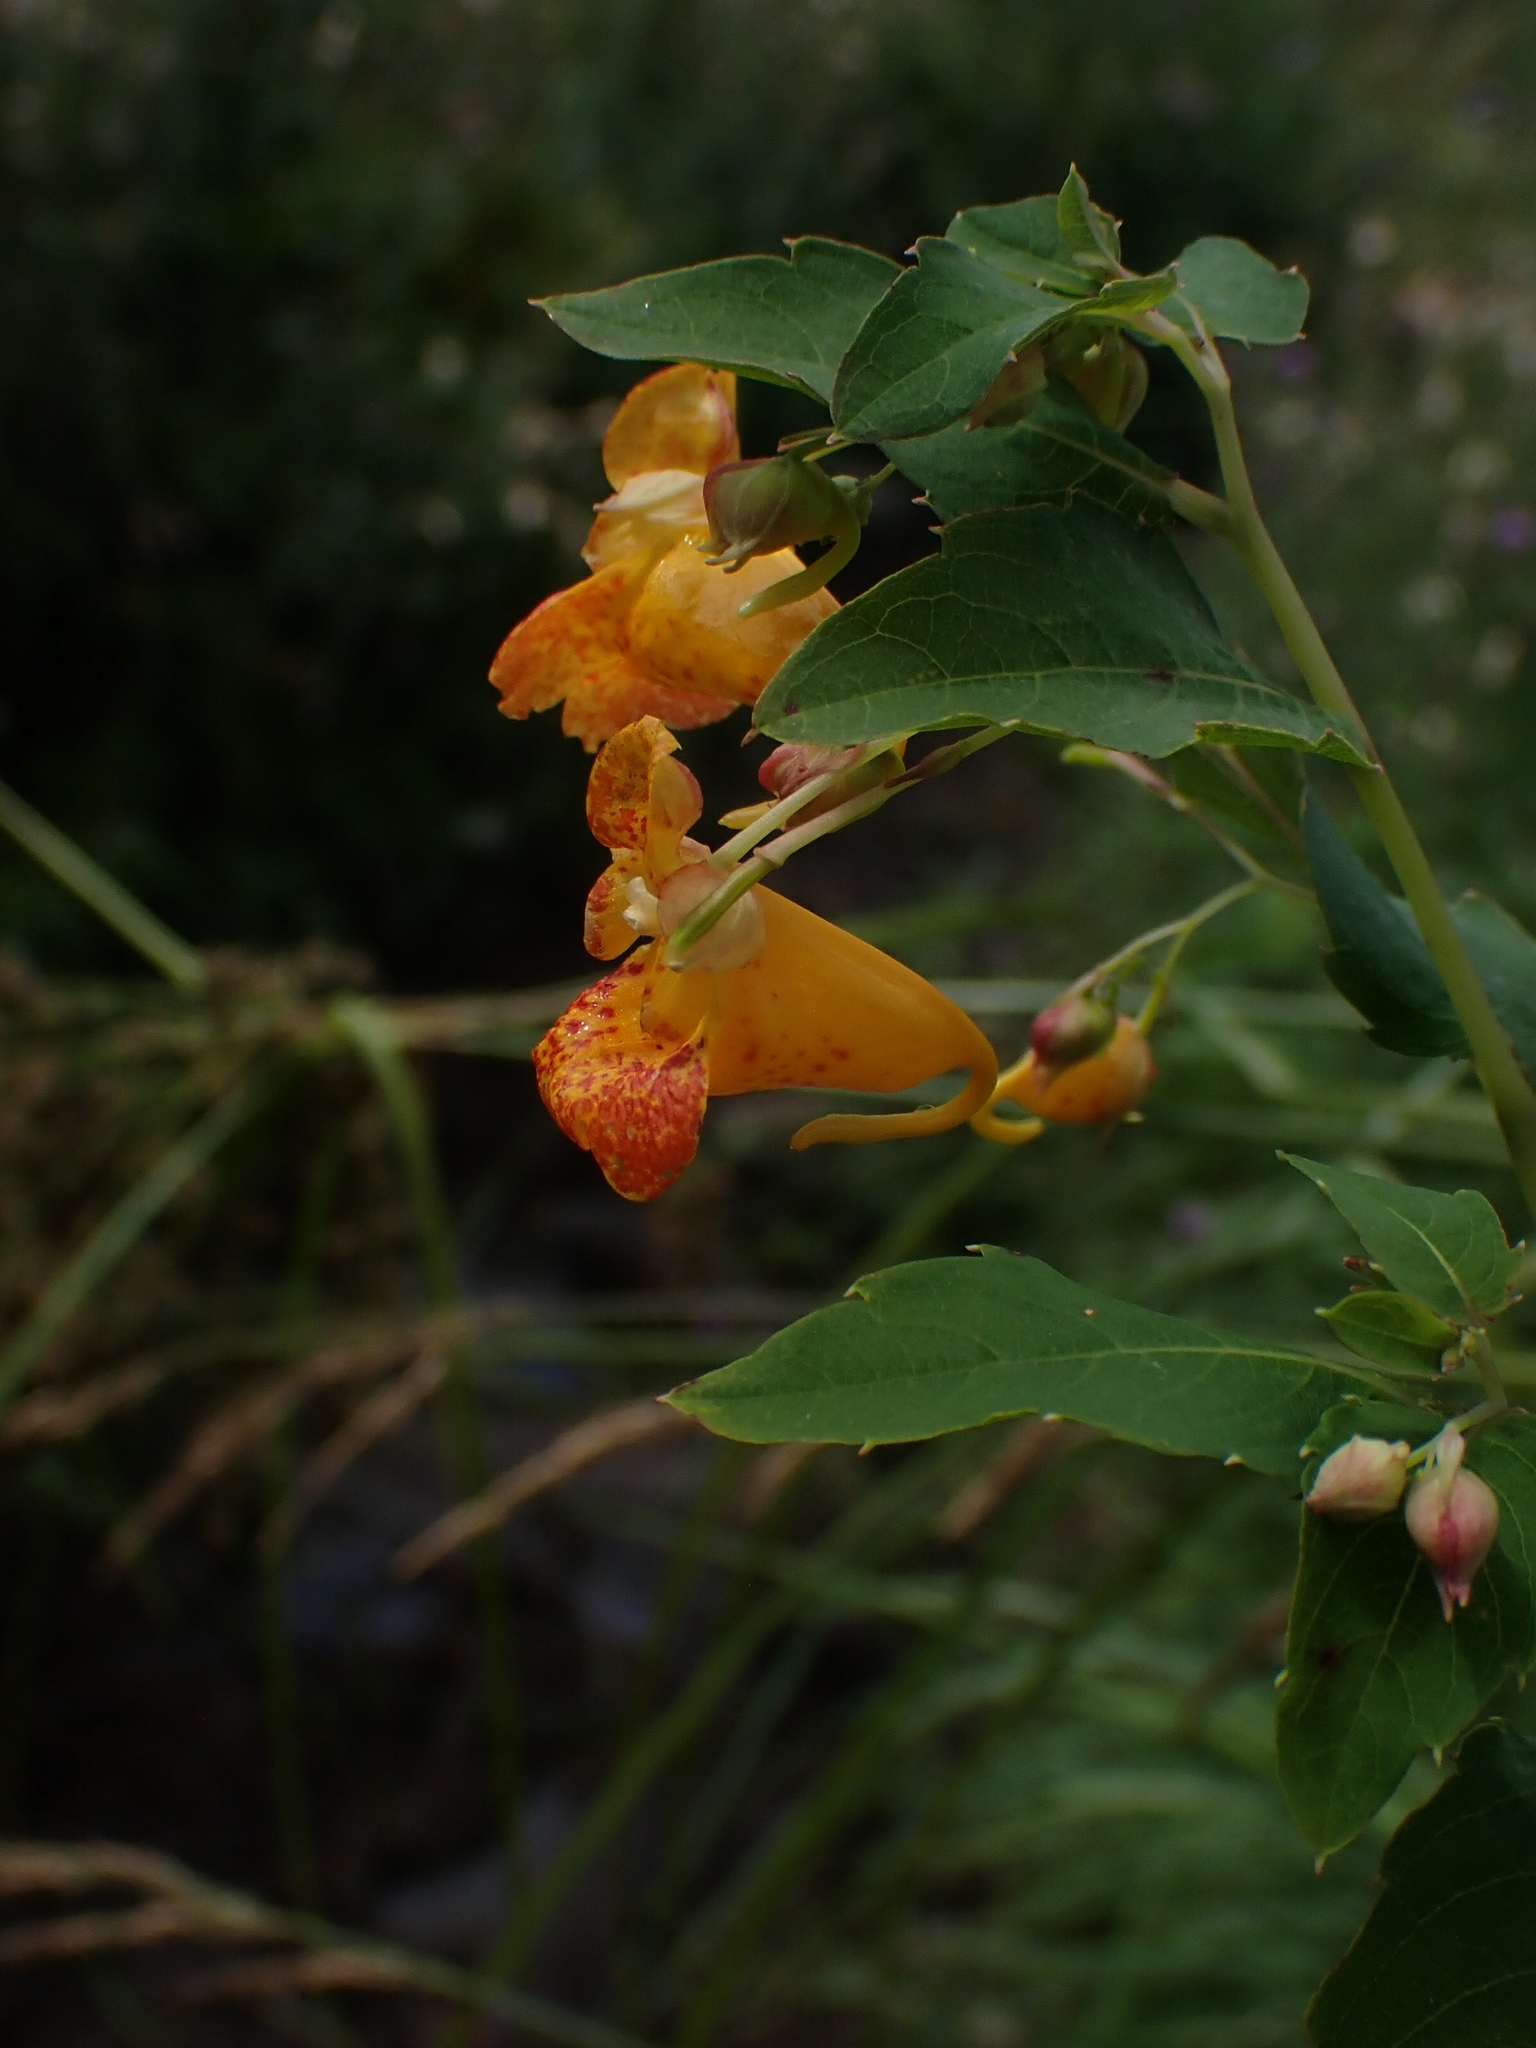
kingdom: Plantae
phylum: Tracheophyta
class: Magnoliopsida
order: Ericales
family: Balsaminaceae
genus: Impatiens
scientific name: Impatiens capensis
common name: Orange balsam
